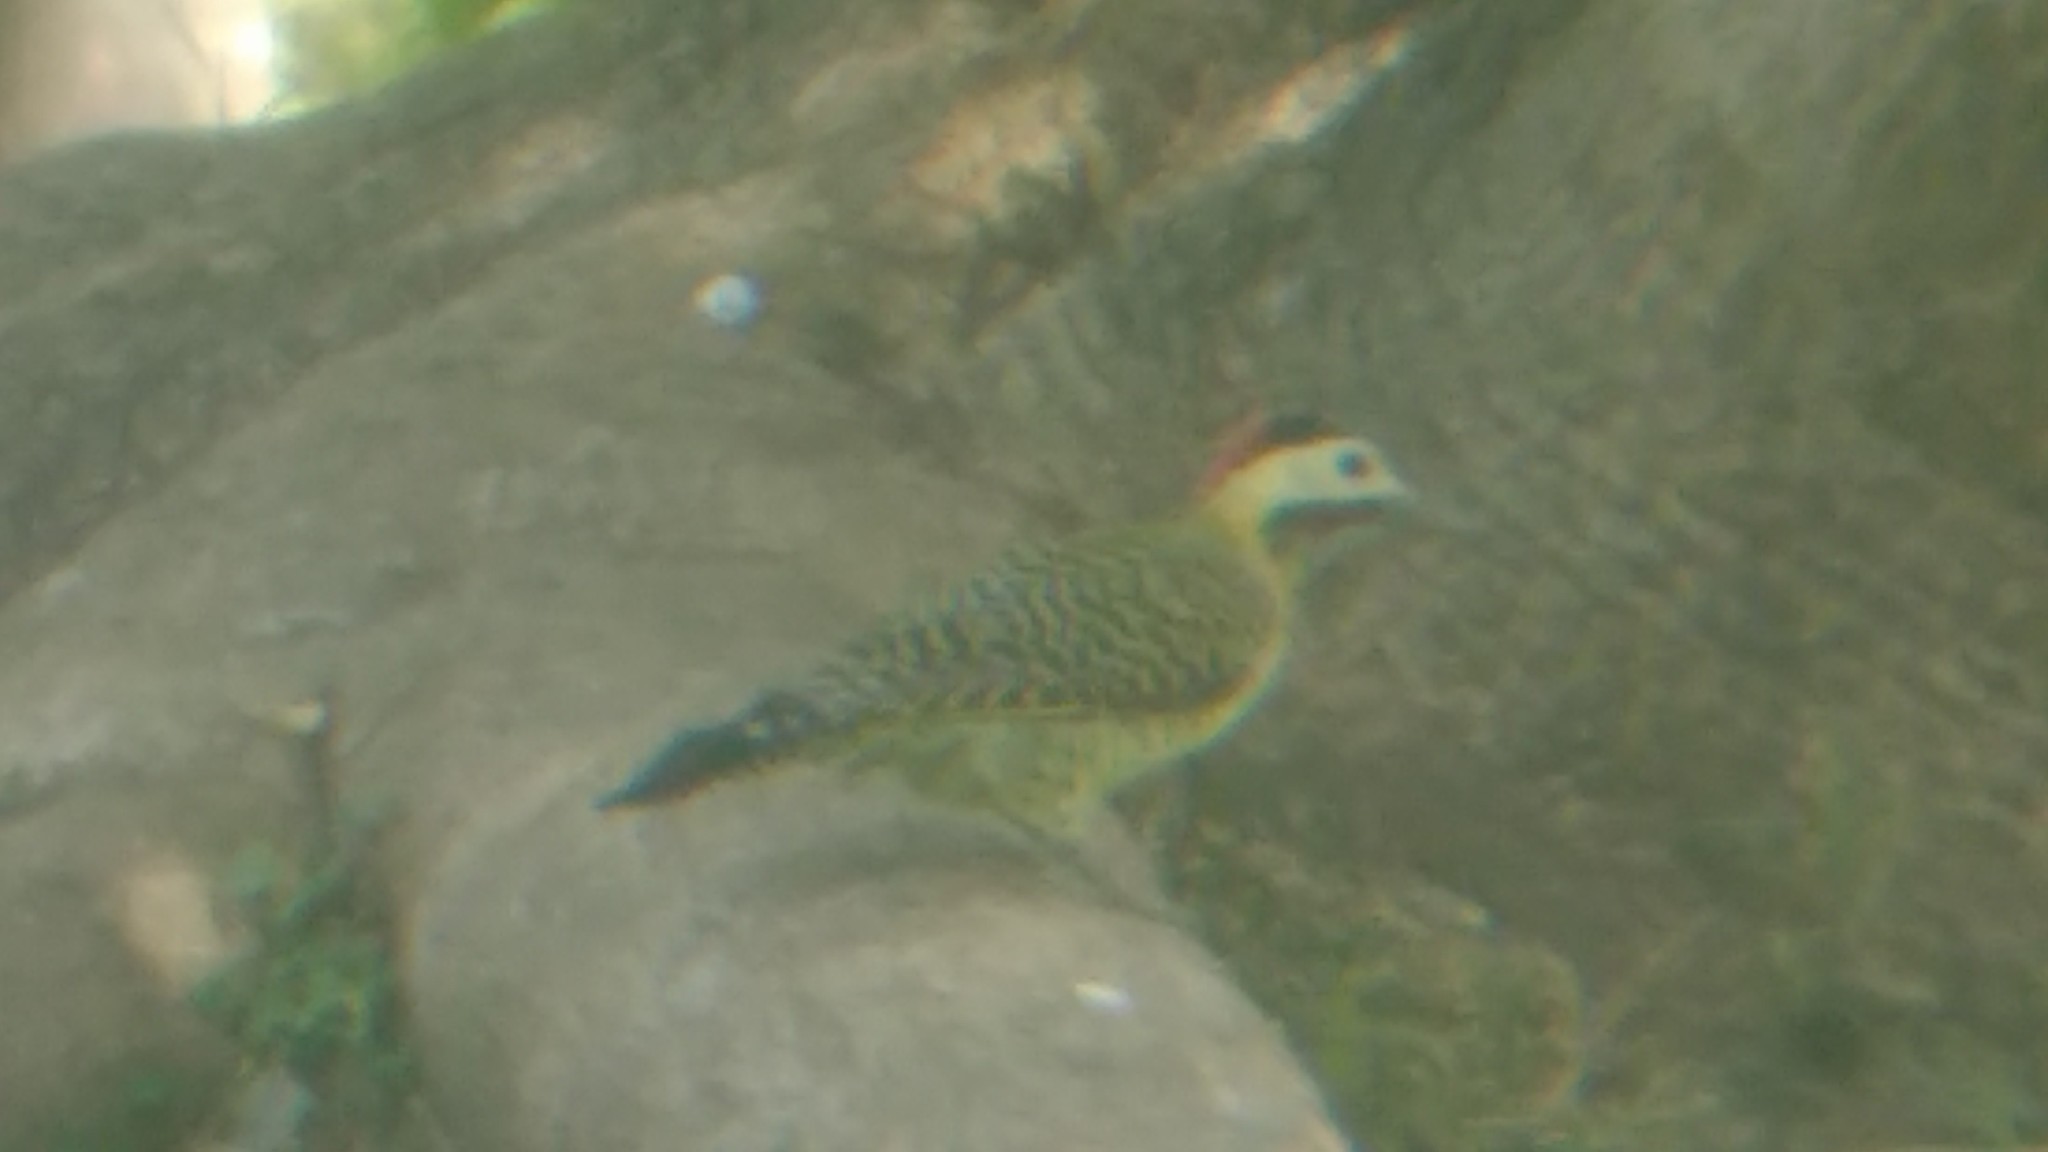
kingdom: Animalia
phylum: Chordata
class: Aves
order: Piciformes
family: Picidae
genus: Colaptes
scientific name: Colaptes melanochloros
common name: Green-barred woodpecker
